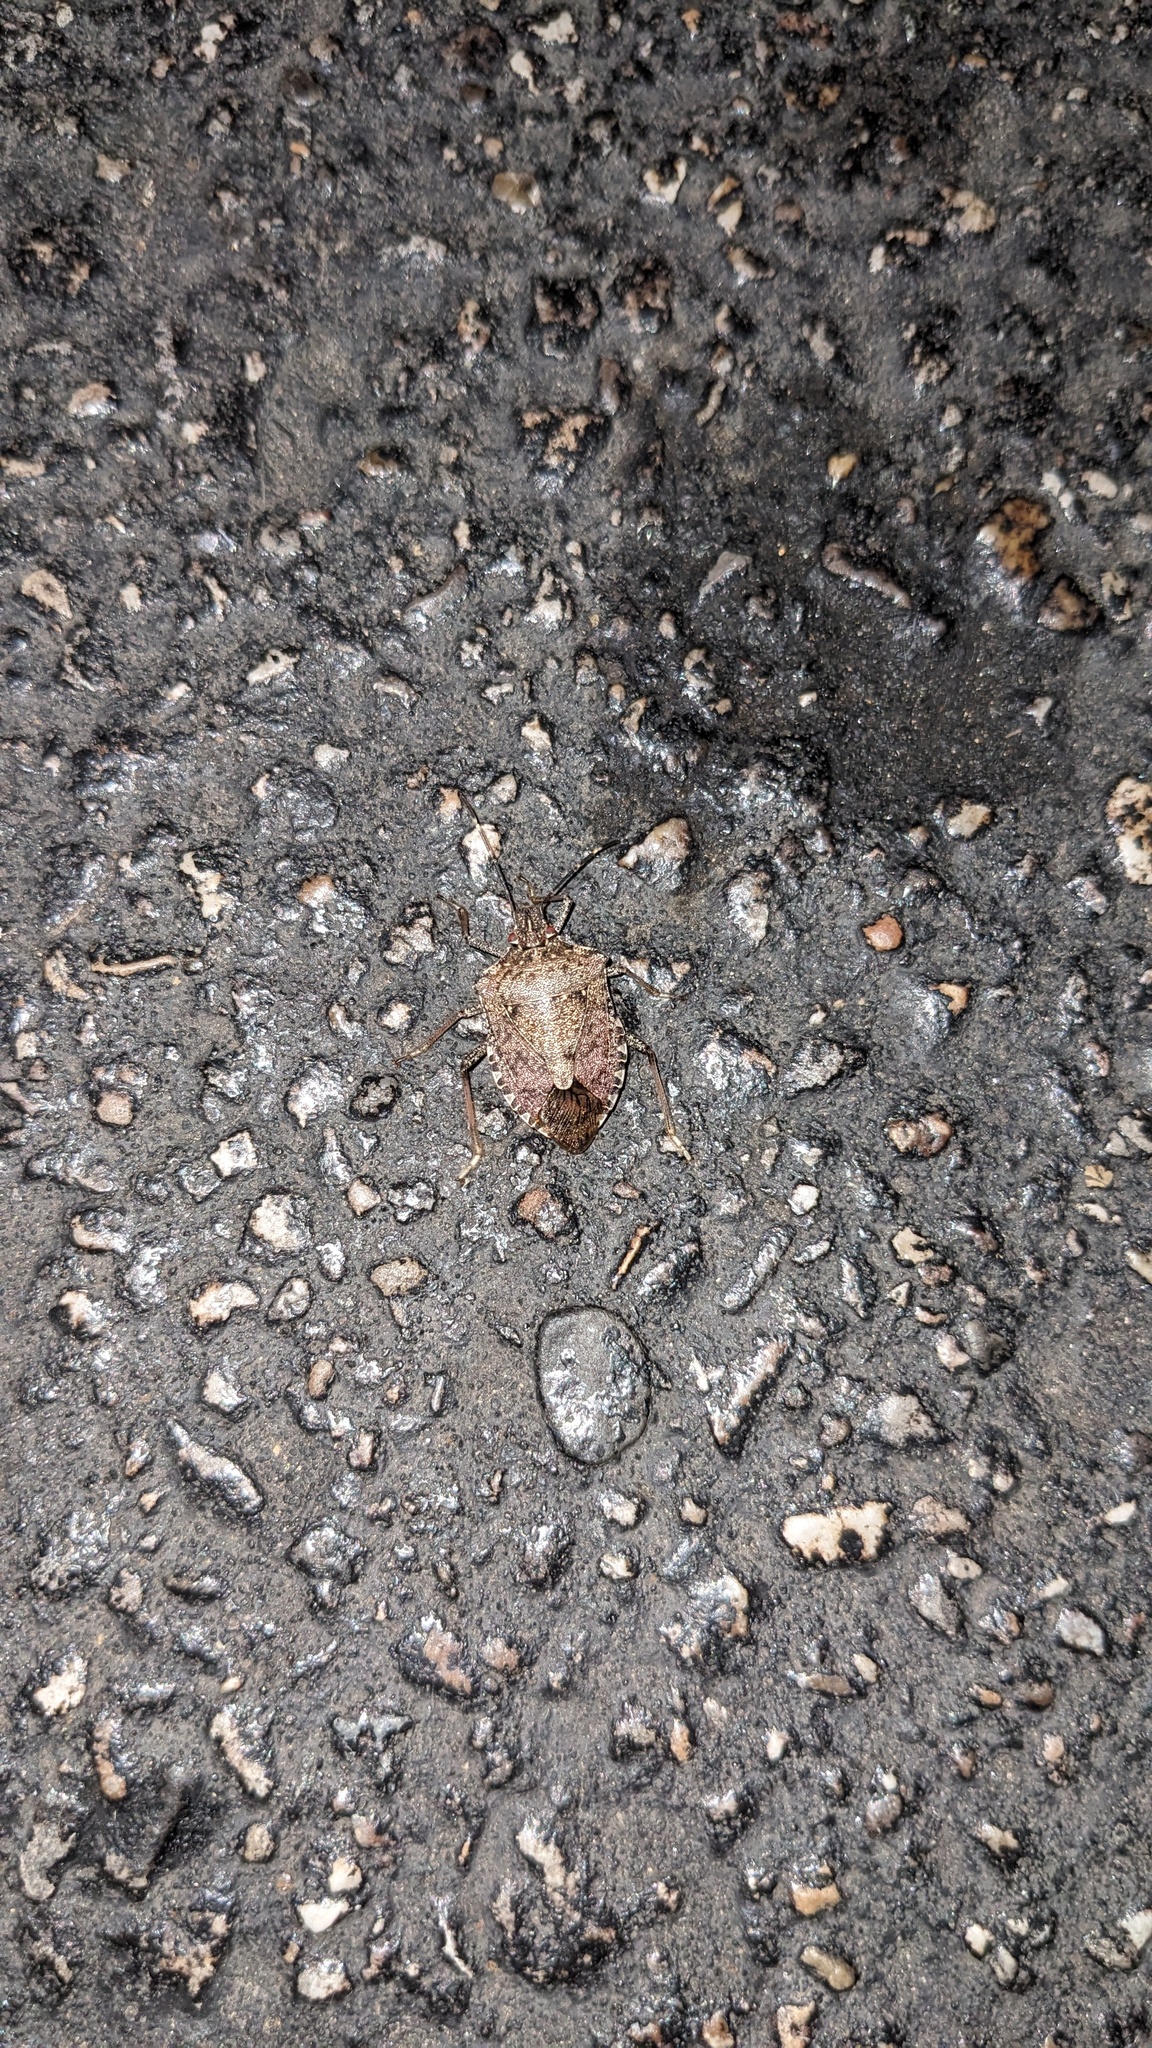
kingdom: Animalia
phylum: Arthropoda
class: Insecta
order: Hemiptera
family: Pentatomidae
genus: Halyomorpha
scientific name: Halyomorpha halys
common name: Brown marmorated stink bug
